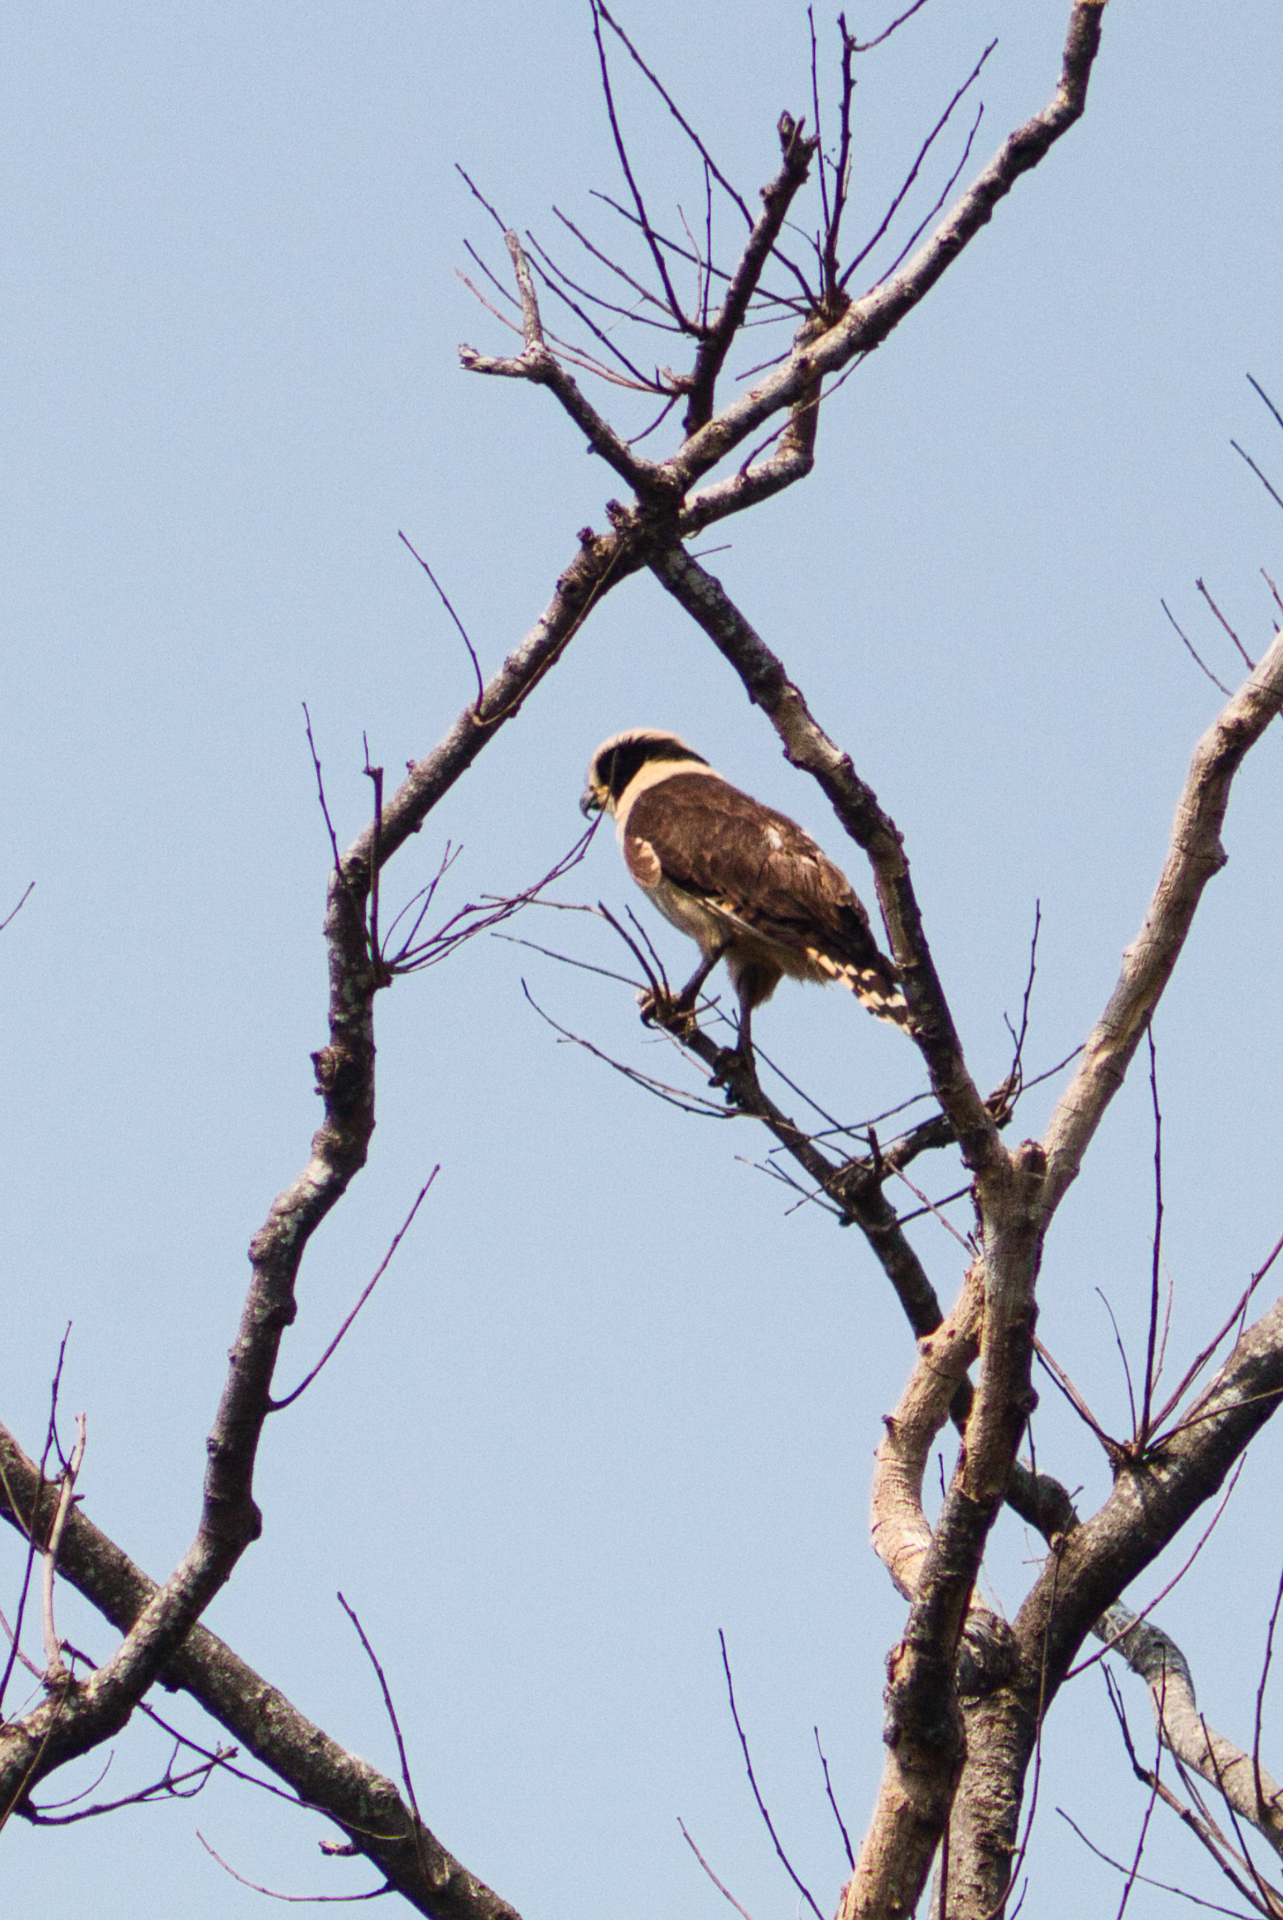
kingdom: Animalia
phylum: Chordata
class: Aves
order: Falconiformes
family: Falconidae
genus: Herpetotheres
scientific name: Herpetotheres cachinnans
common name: Laughing falcon
